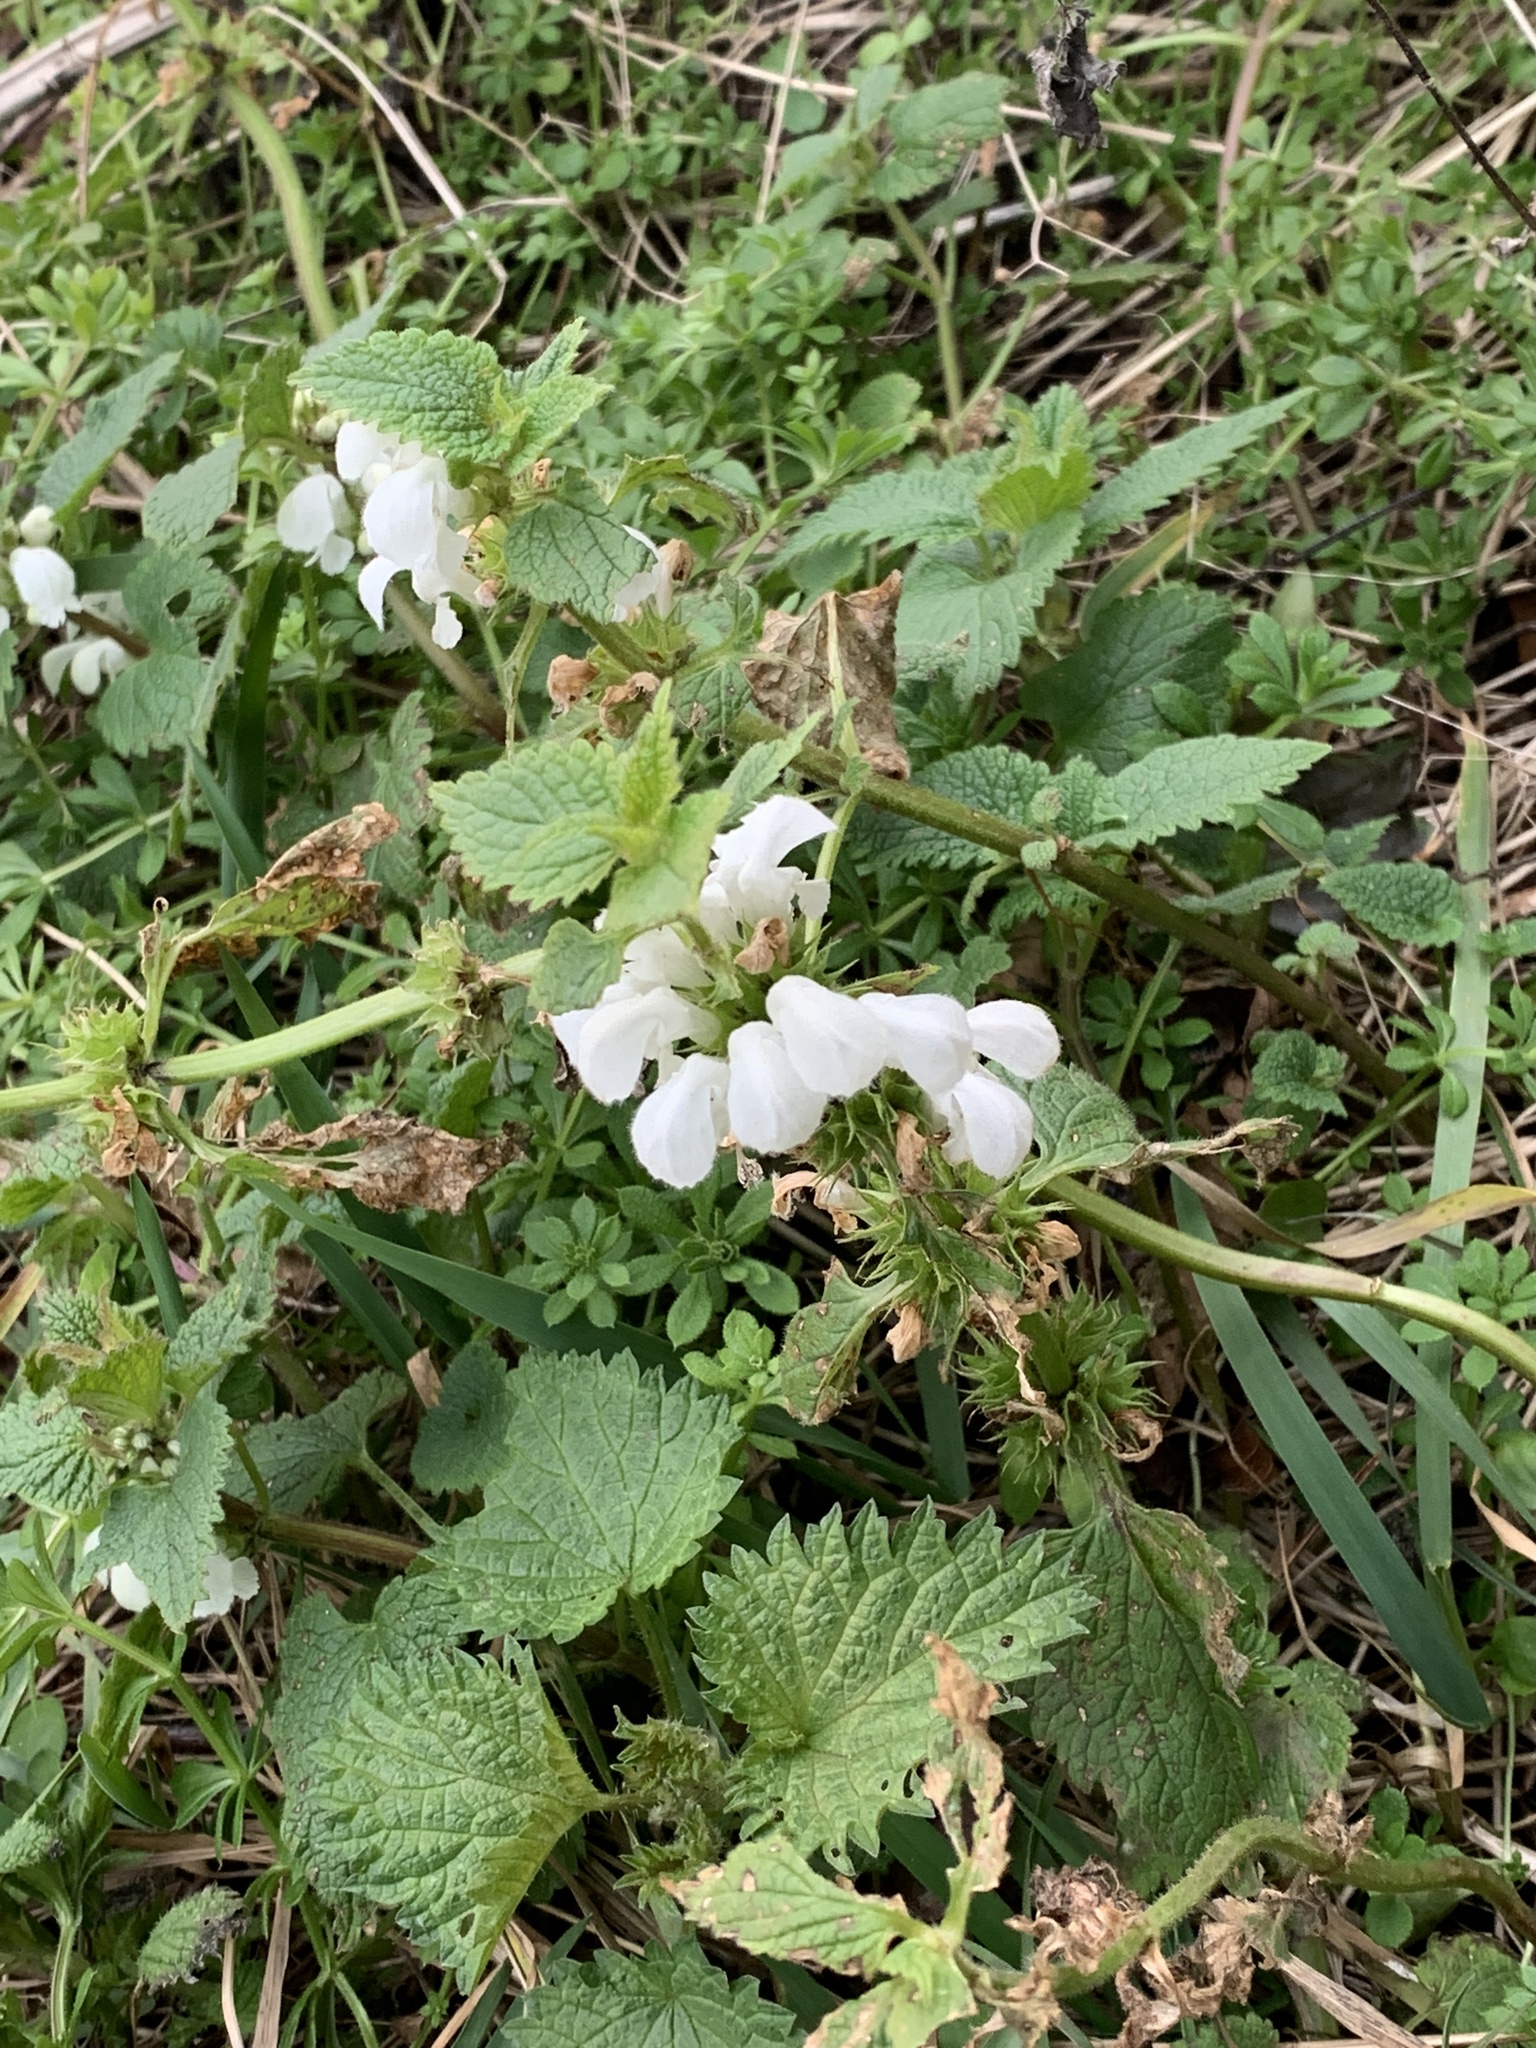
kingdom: Plantae
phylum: Tracheophyta
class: Magnoliopsida
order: Lamiales
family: Lamiaceae
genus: Lamium
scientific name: Lamium album
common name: White dead-nettle
